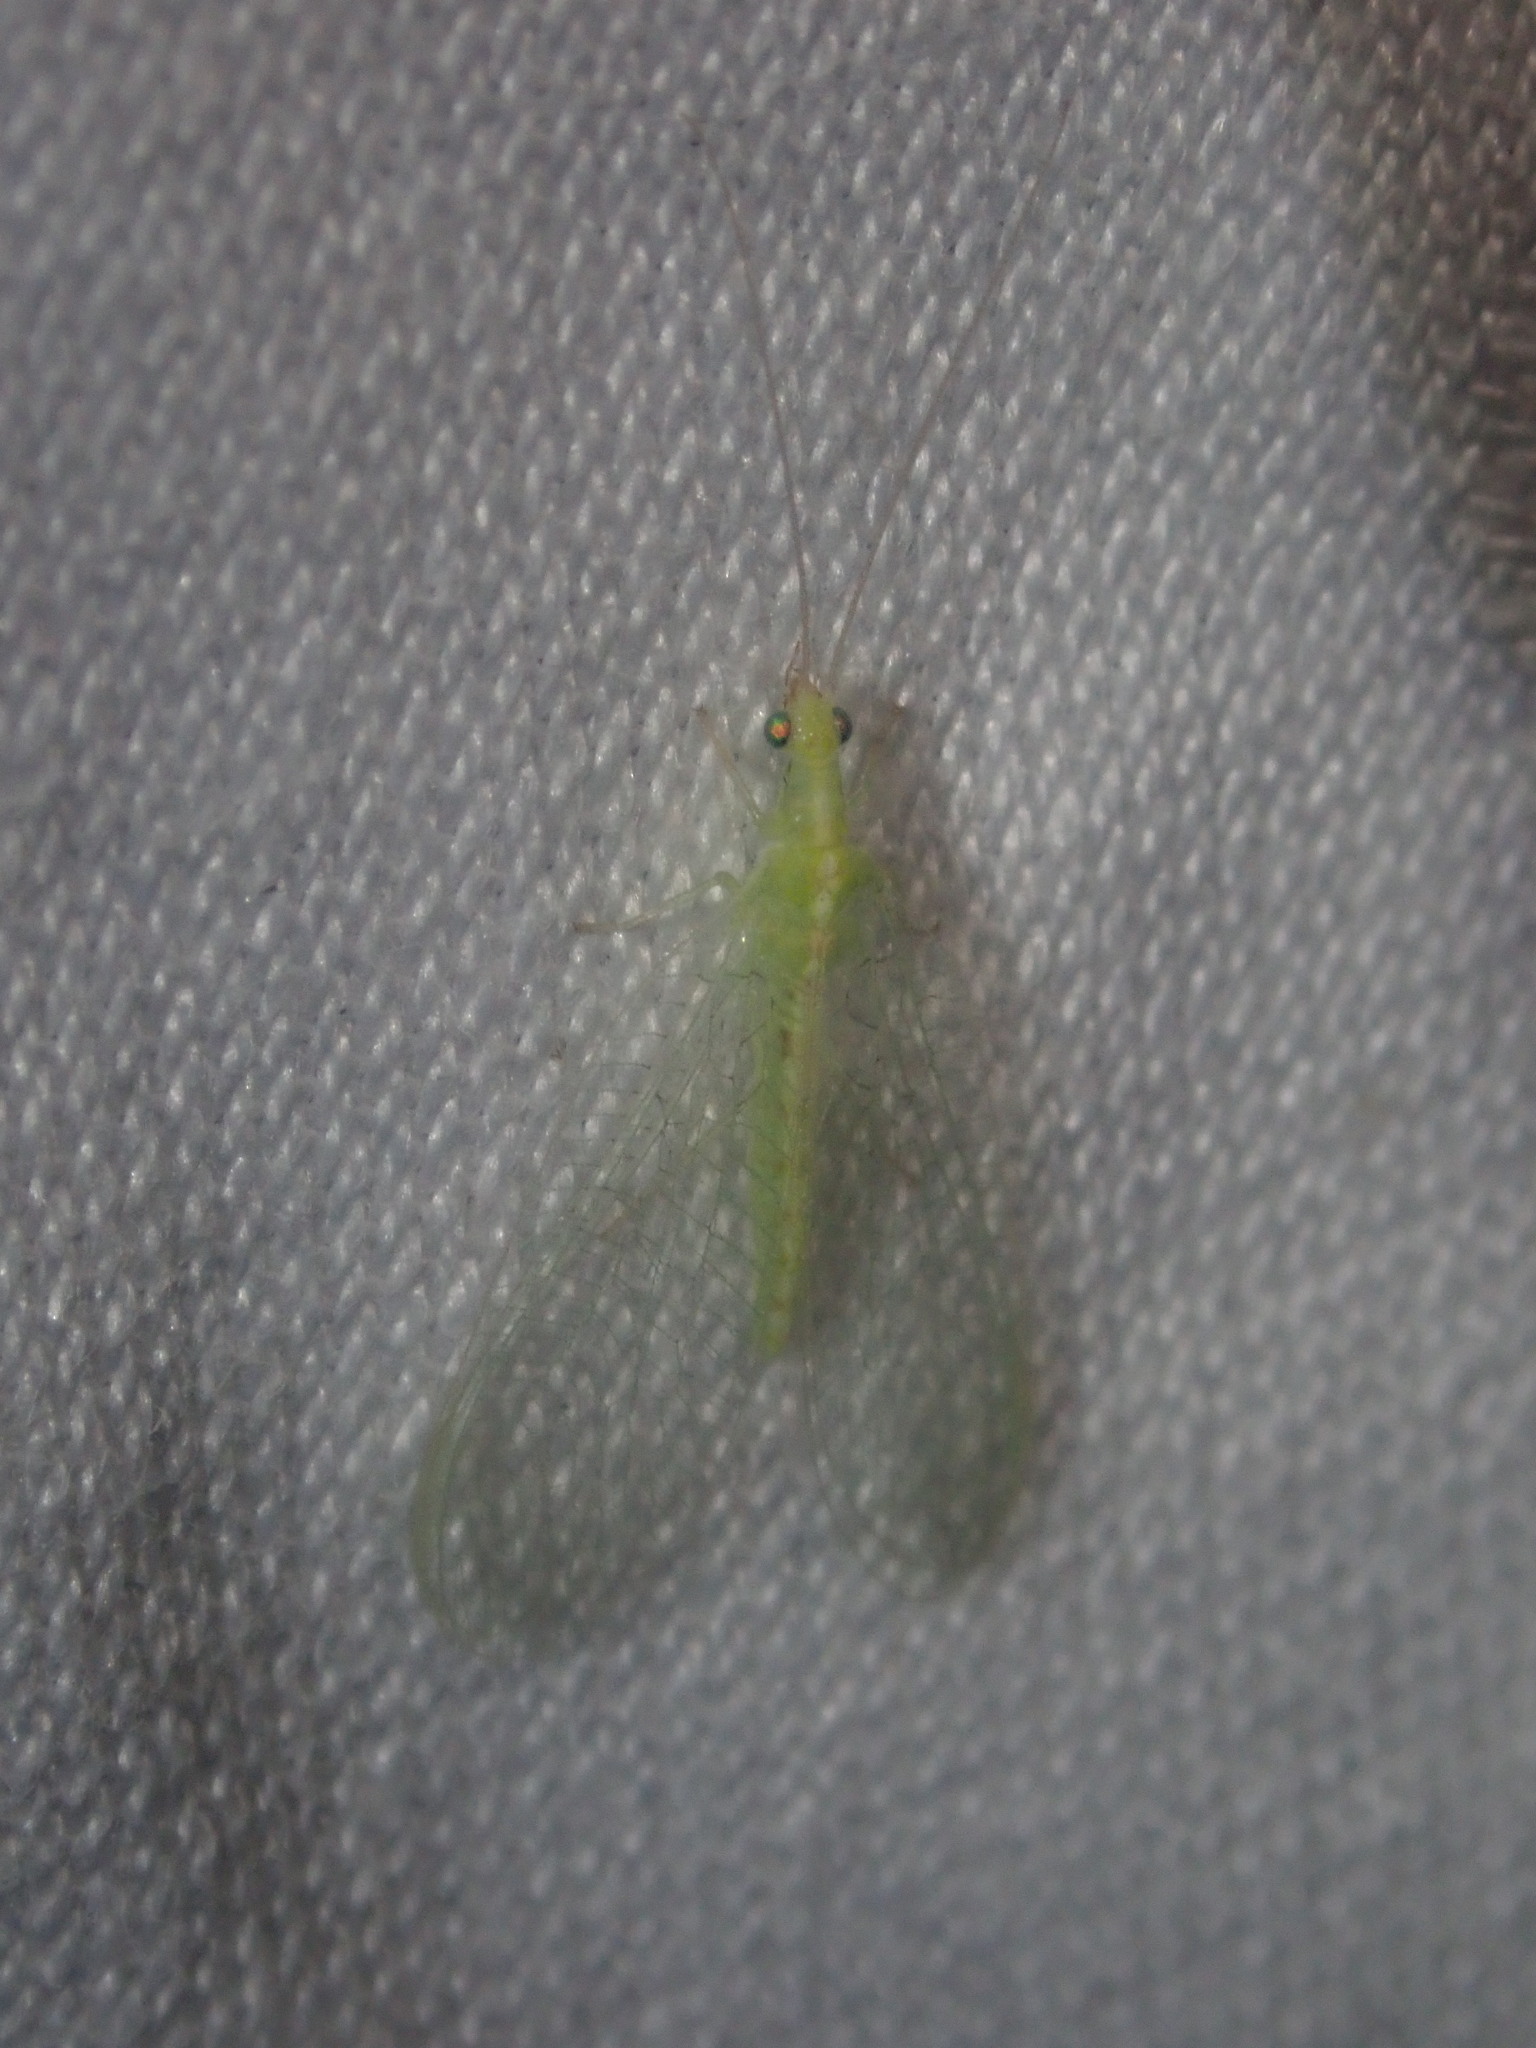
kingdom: Animalia
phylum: Arthropoda
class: Insecta
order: Neuroptera
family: Chrysopidae
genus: Chrysoperla
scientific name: Chrysoperla
